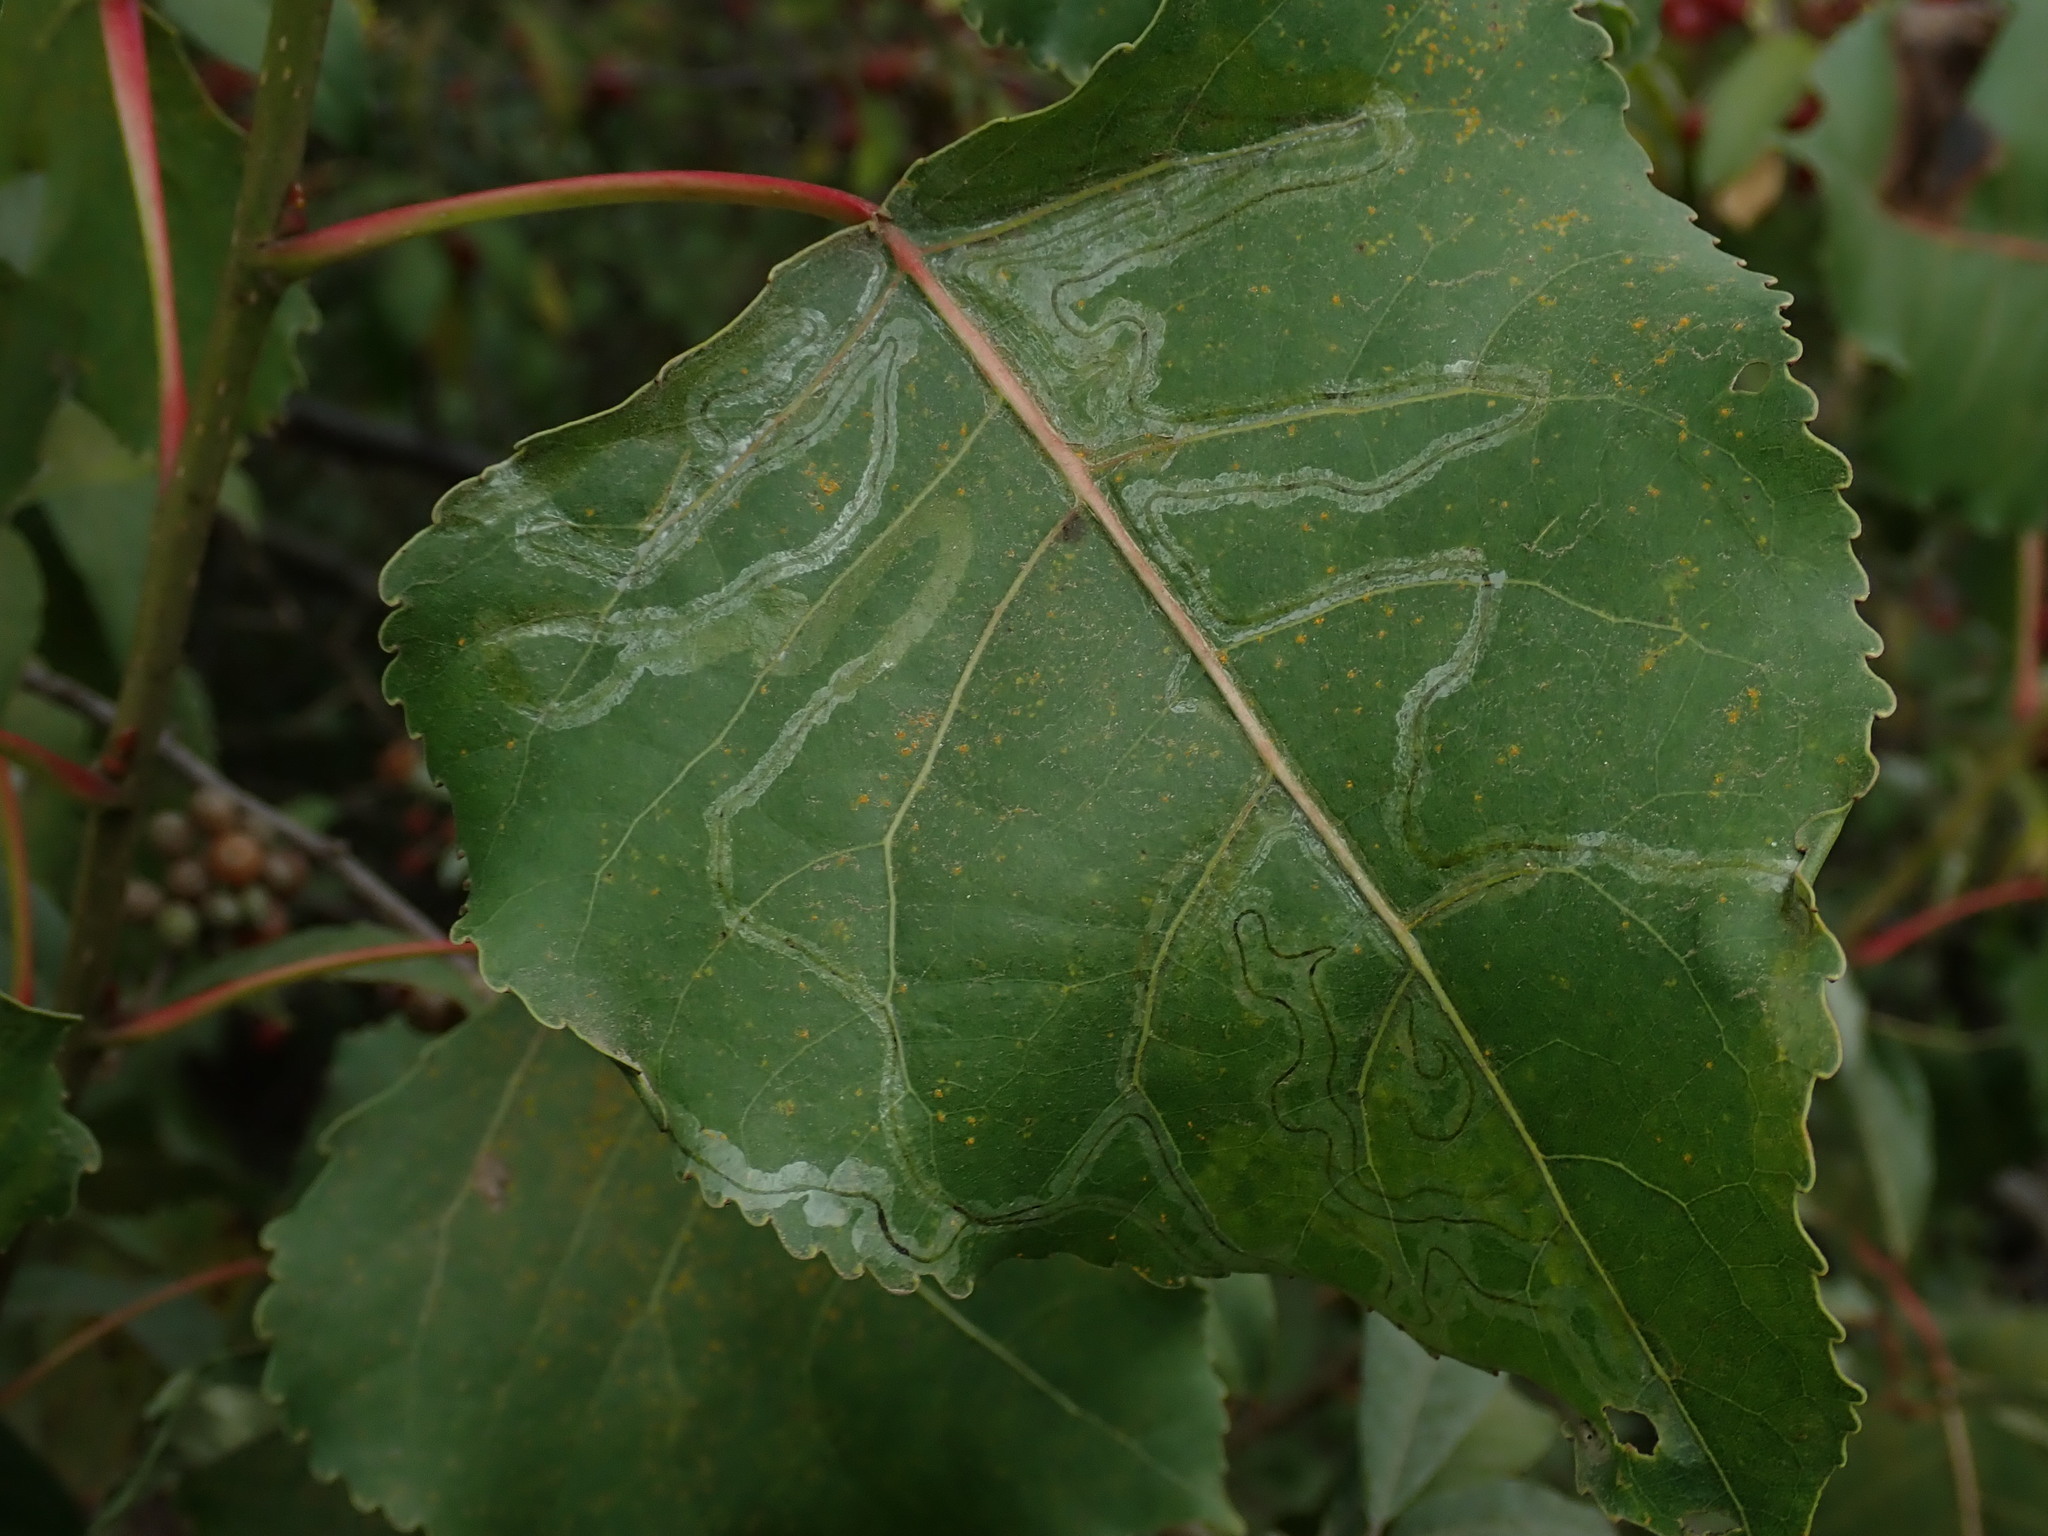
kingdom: Animalia
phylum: Arthropoda
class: Insecta
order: Lepidoptera
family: Gracillariidae
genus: Phyllocnistis
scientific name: Phyllocnistis populiella
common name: Aspen serpentine leafminer moth
